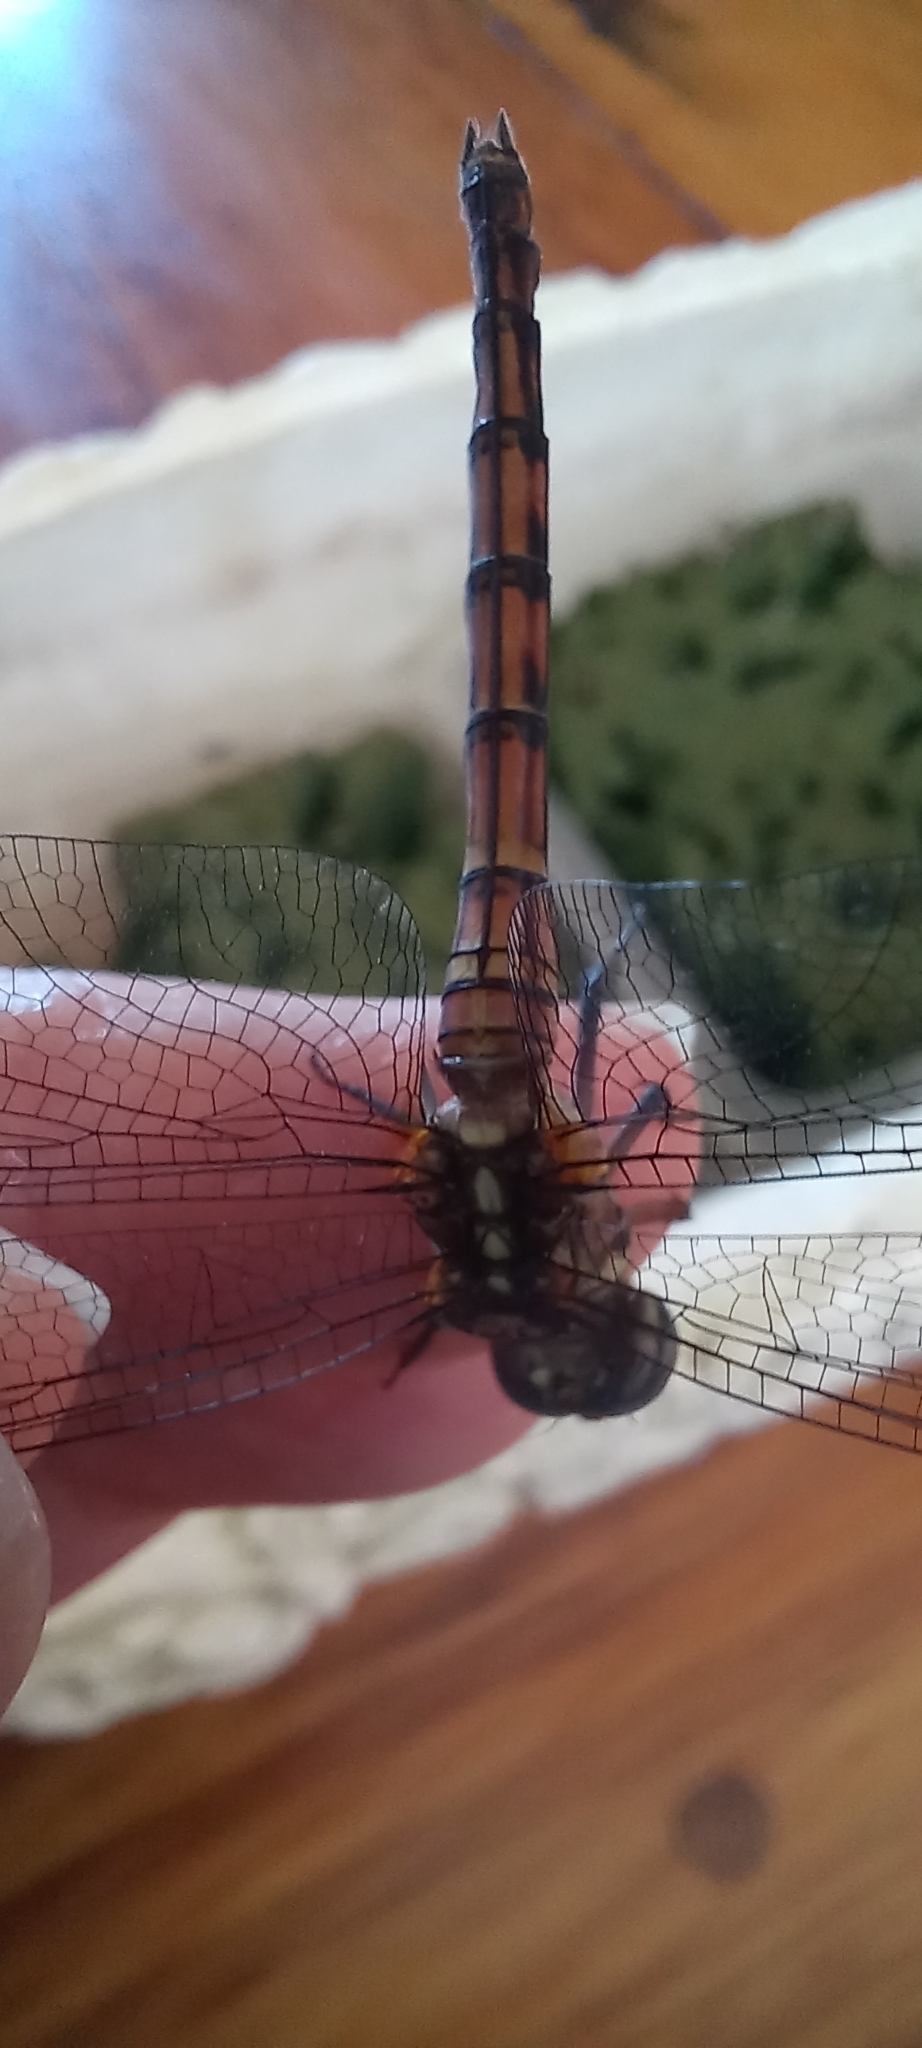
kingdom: Animalia
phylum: Arthropoda
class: Insecta
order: Odonata
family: Libellulidae
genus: Orthetrum
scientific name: Orthetrum julia
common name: Julia skimmer
